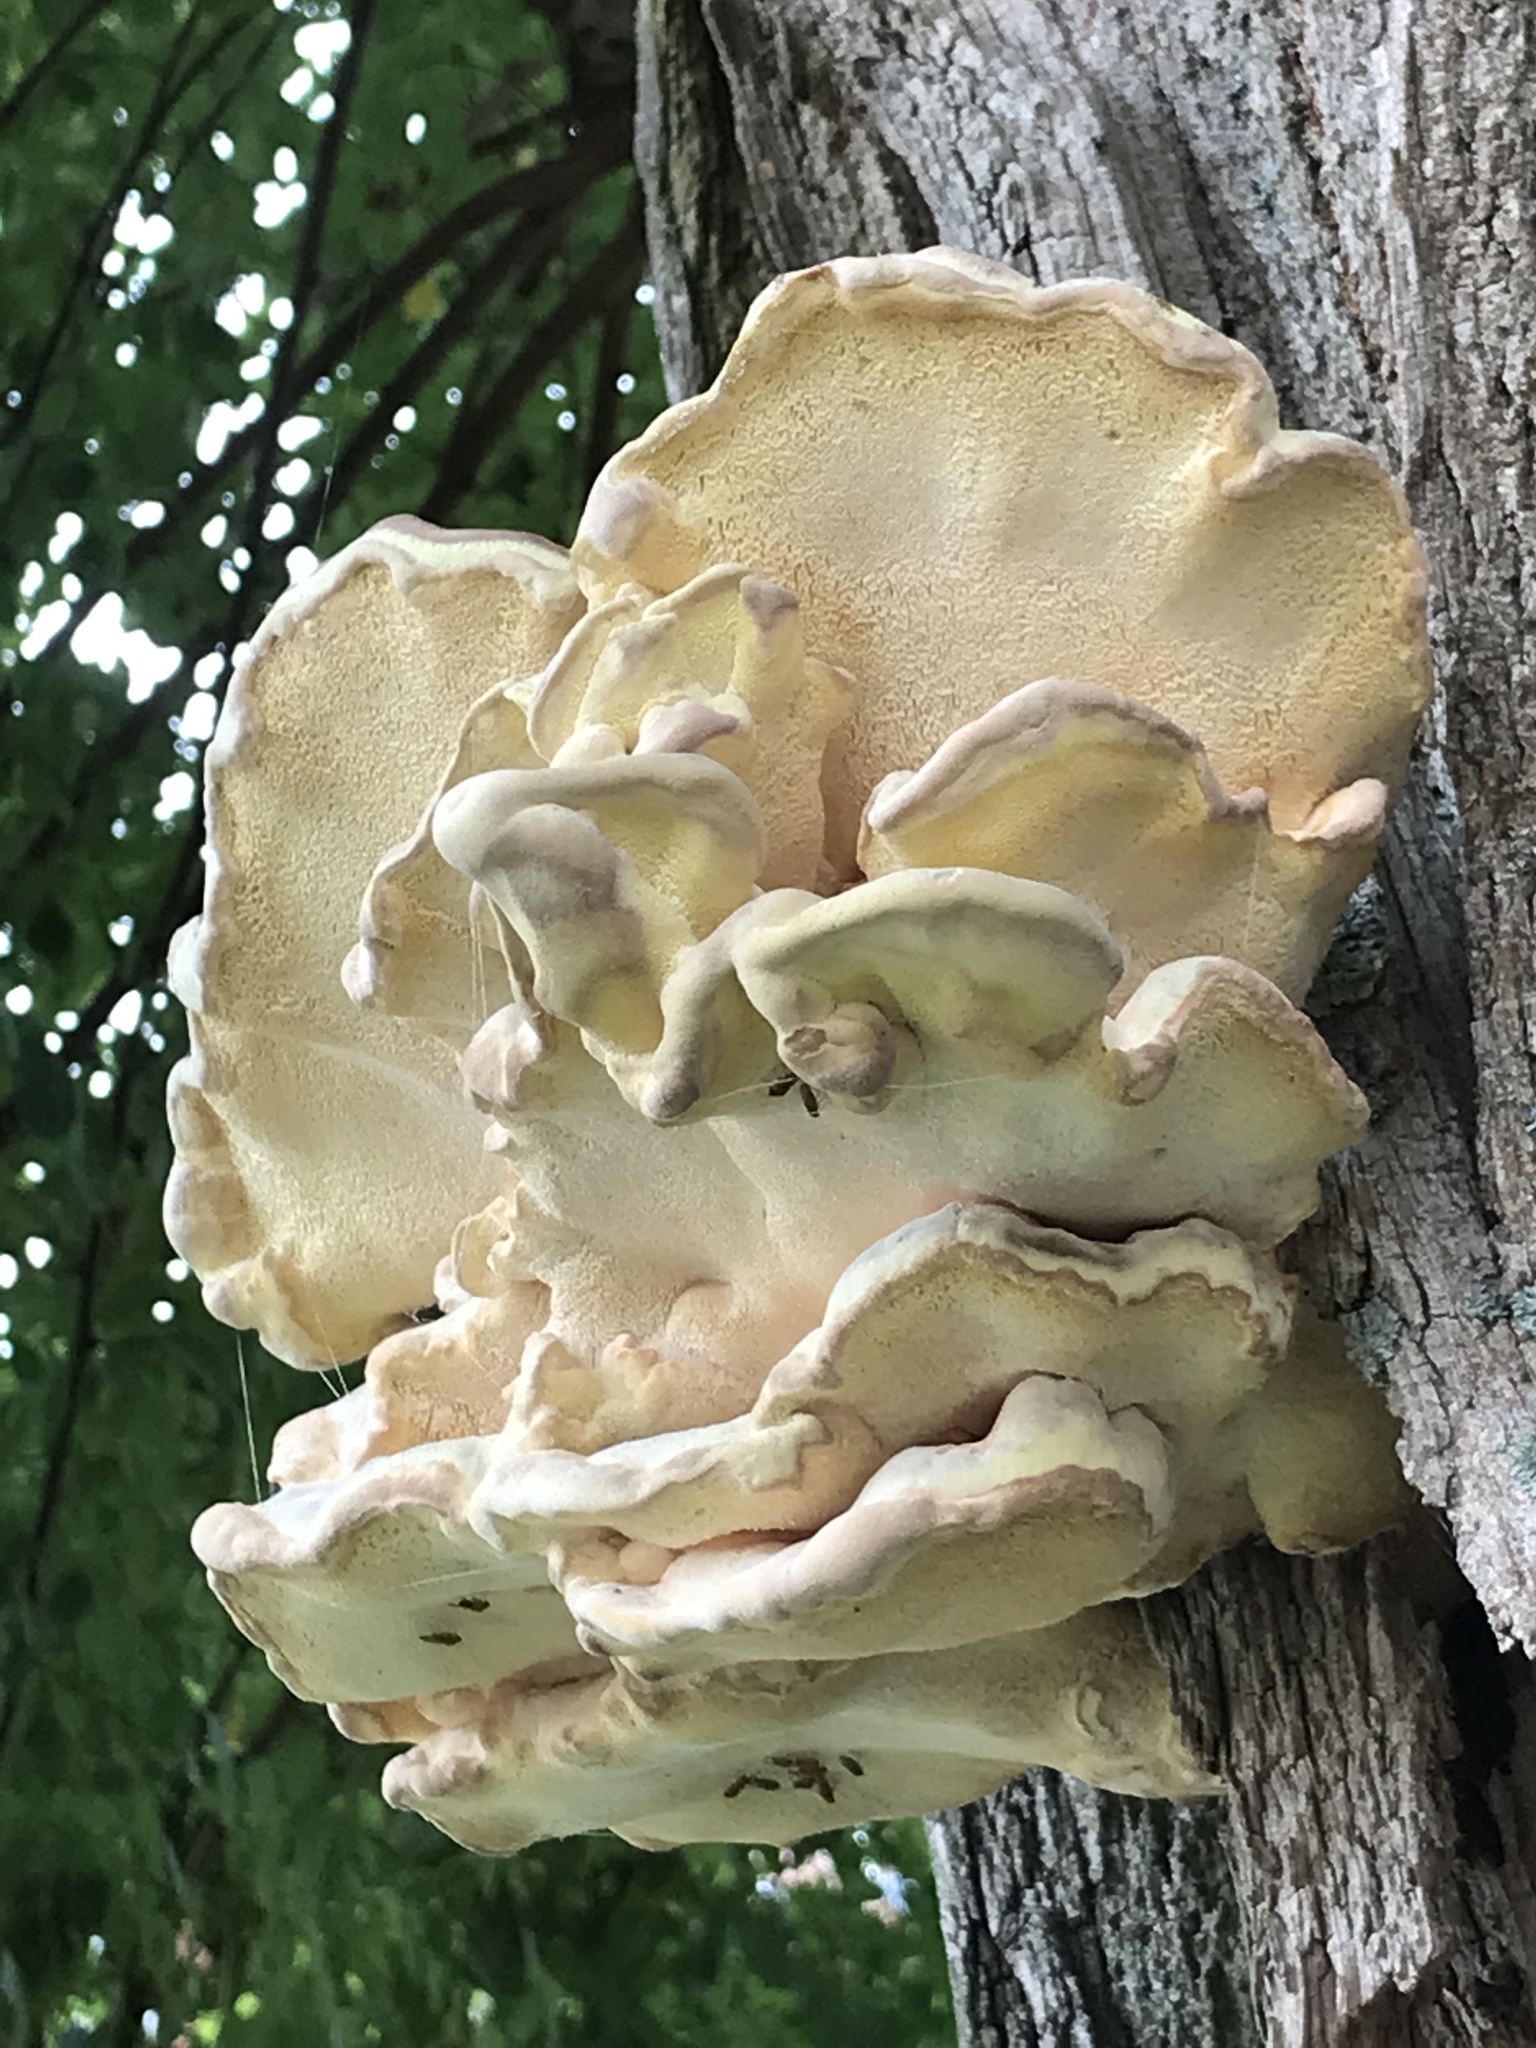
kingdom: Fungi
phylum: Basidiomycota
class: Agaricomycetes
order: Polyporales
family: Meripilaceae
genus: Meripilus
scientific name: Meripilus giganteus
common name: Giant polypore
